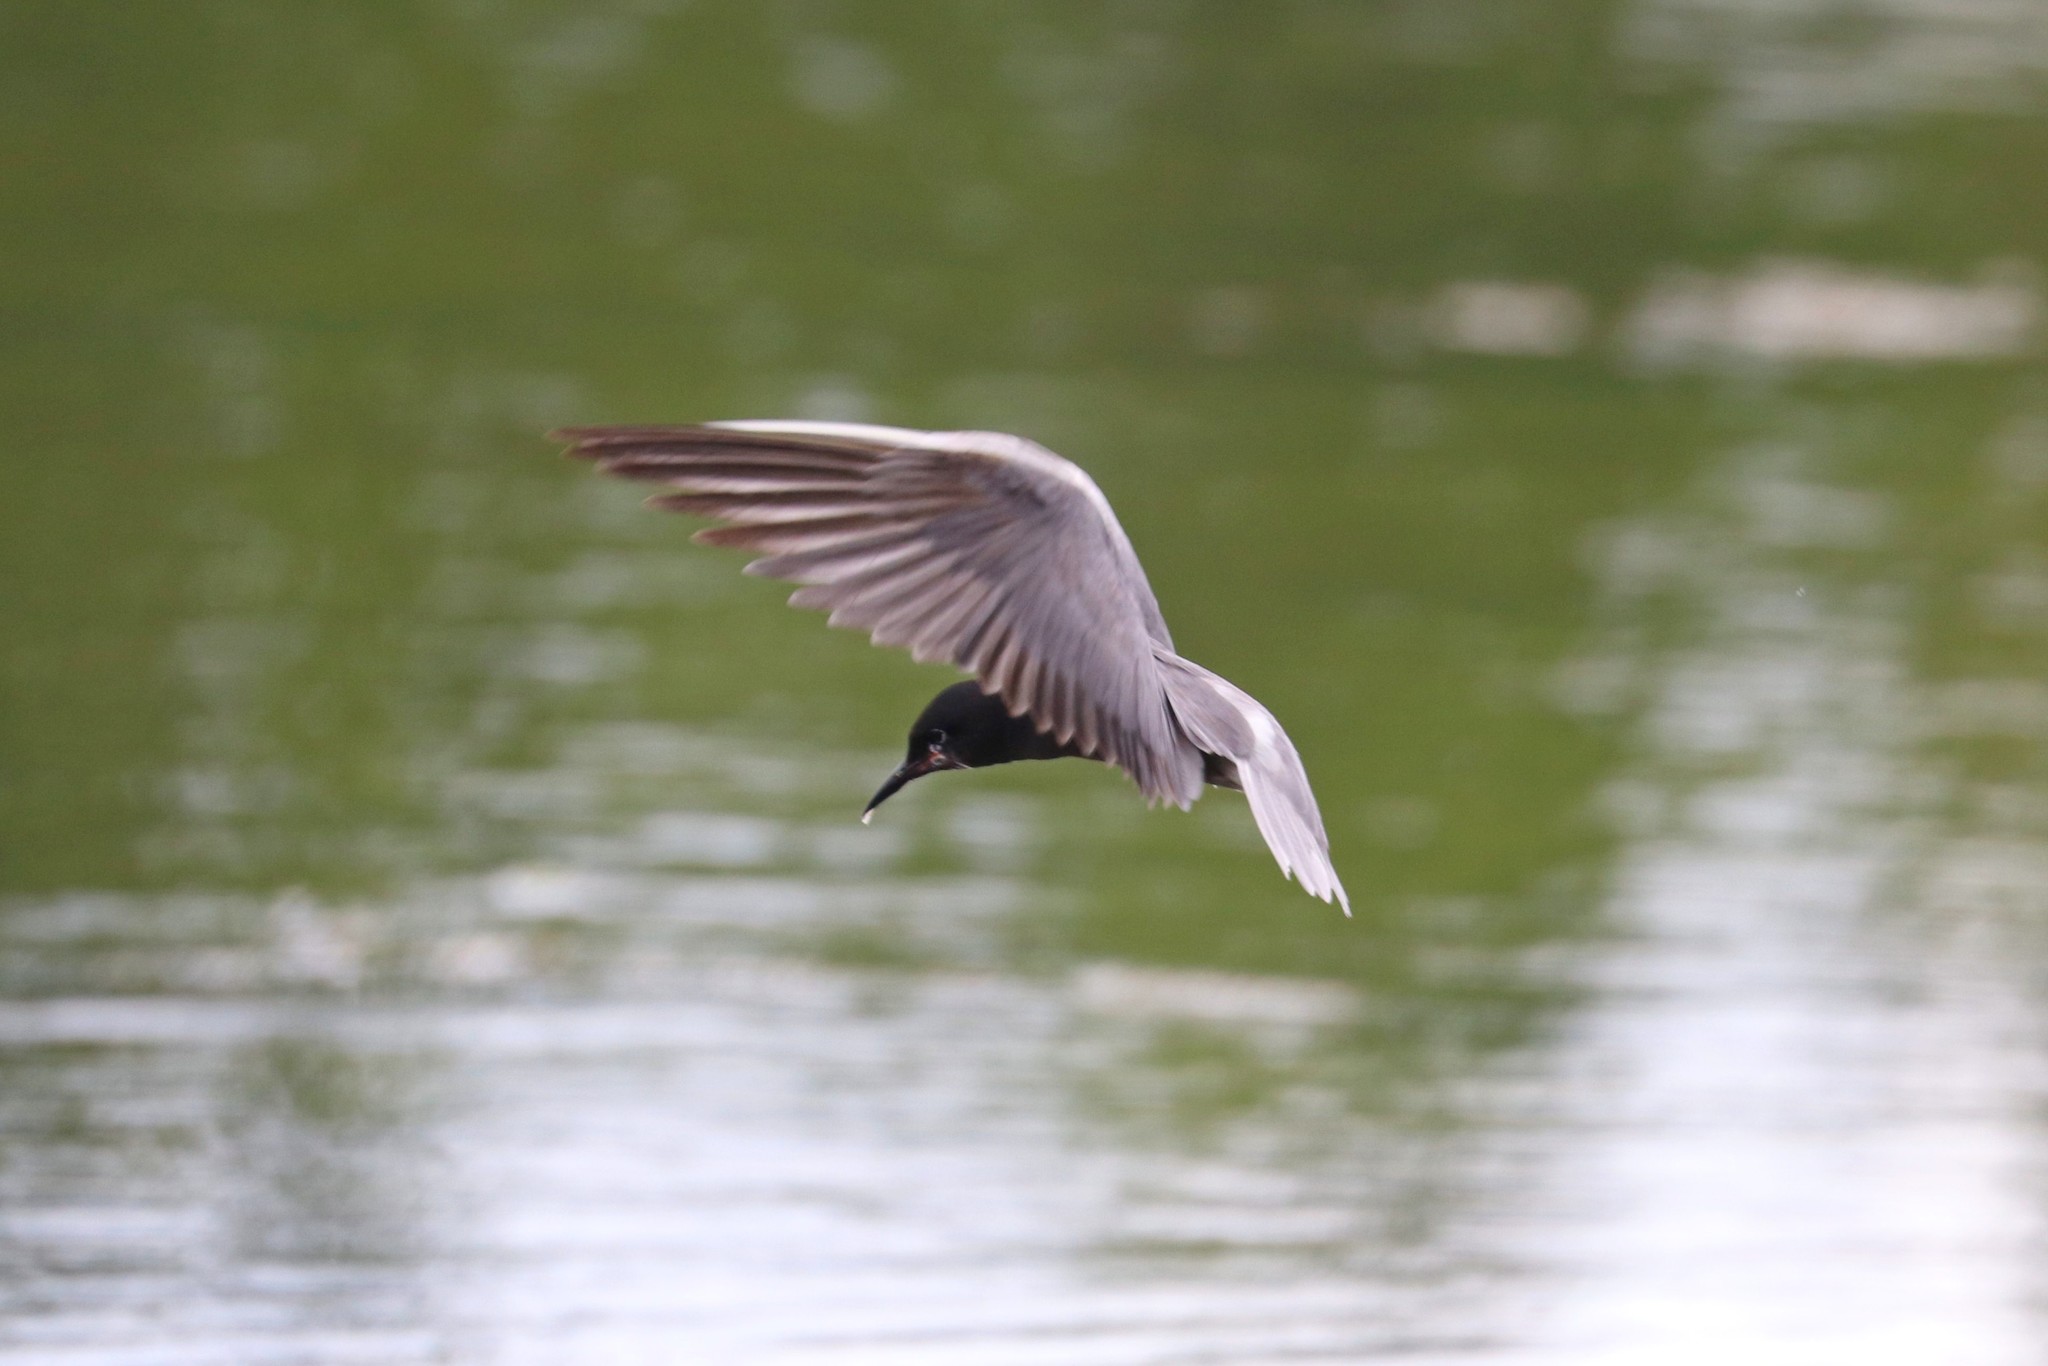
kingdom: Animalia
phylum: Chordata
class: Aves
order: Charadriiformes
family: Laridae
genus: Chlidonias
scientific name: Chlidonias niger
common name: Black tern
